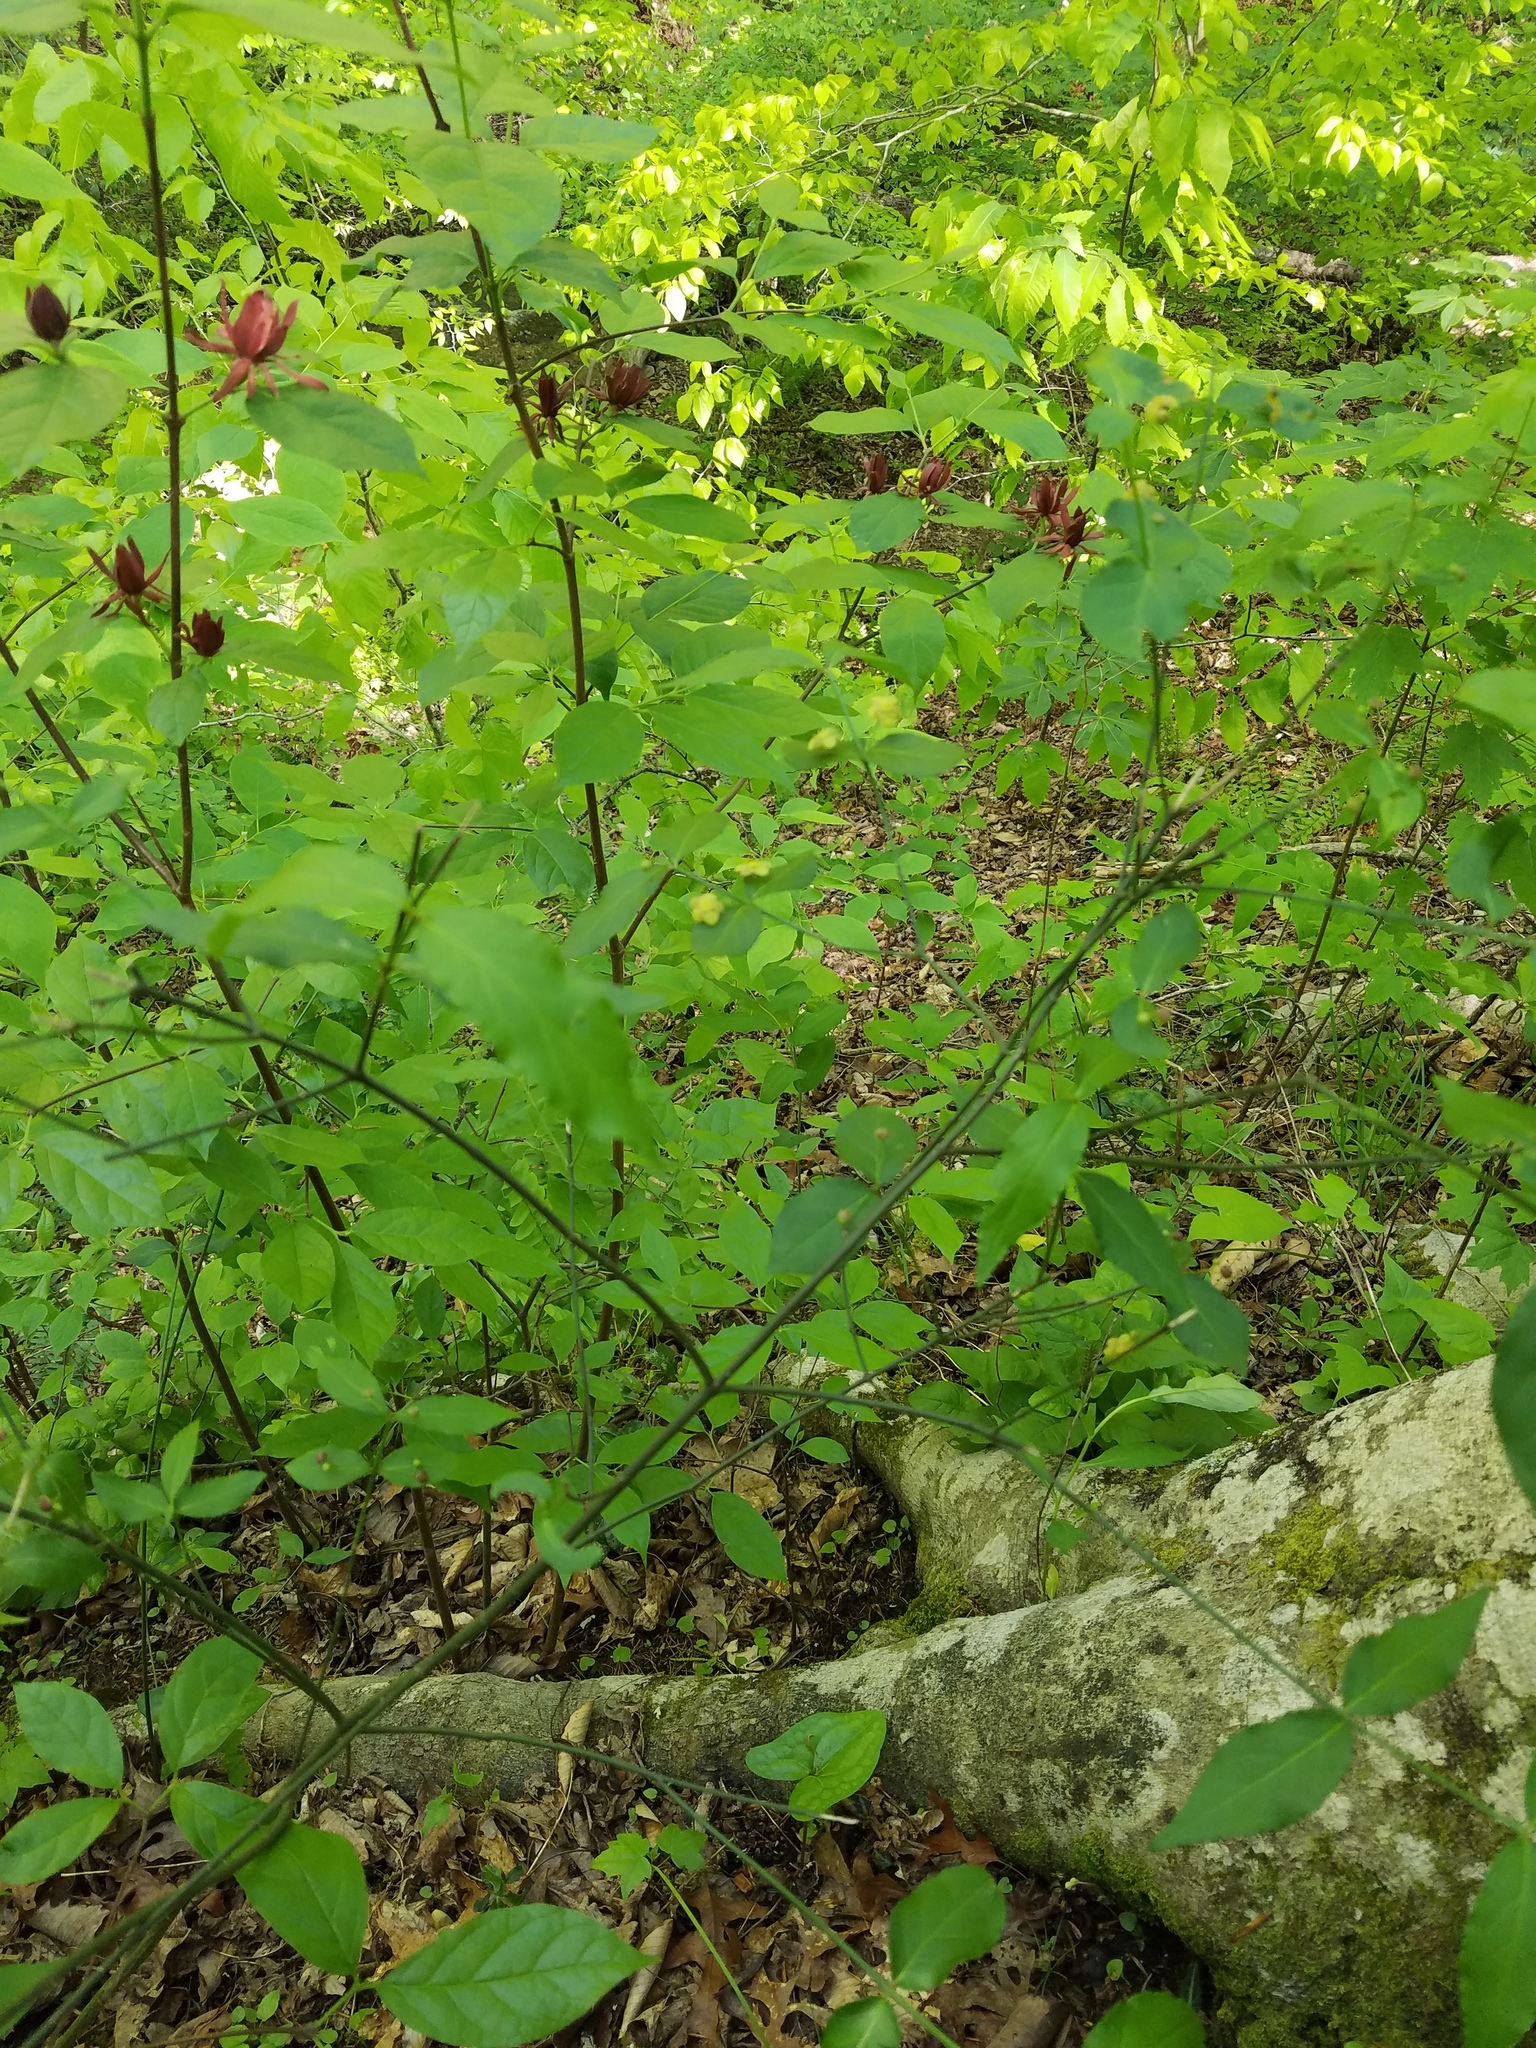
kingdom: Plantae
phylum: Tracheophyta
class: Magnoliopsida
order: Celastrales
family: Celastraceae
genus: Euonymus
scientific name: Euonymus americanus
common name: Bursting-heart
